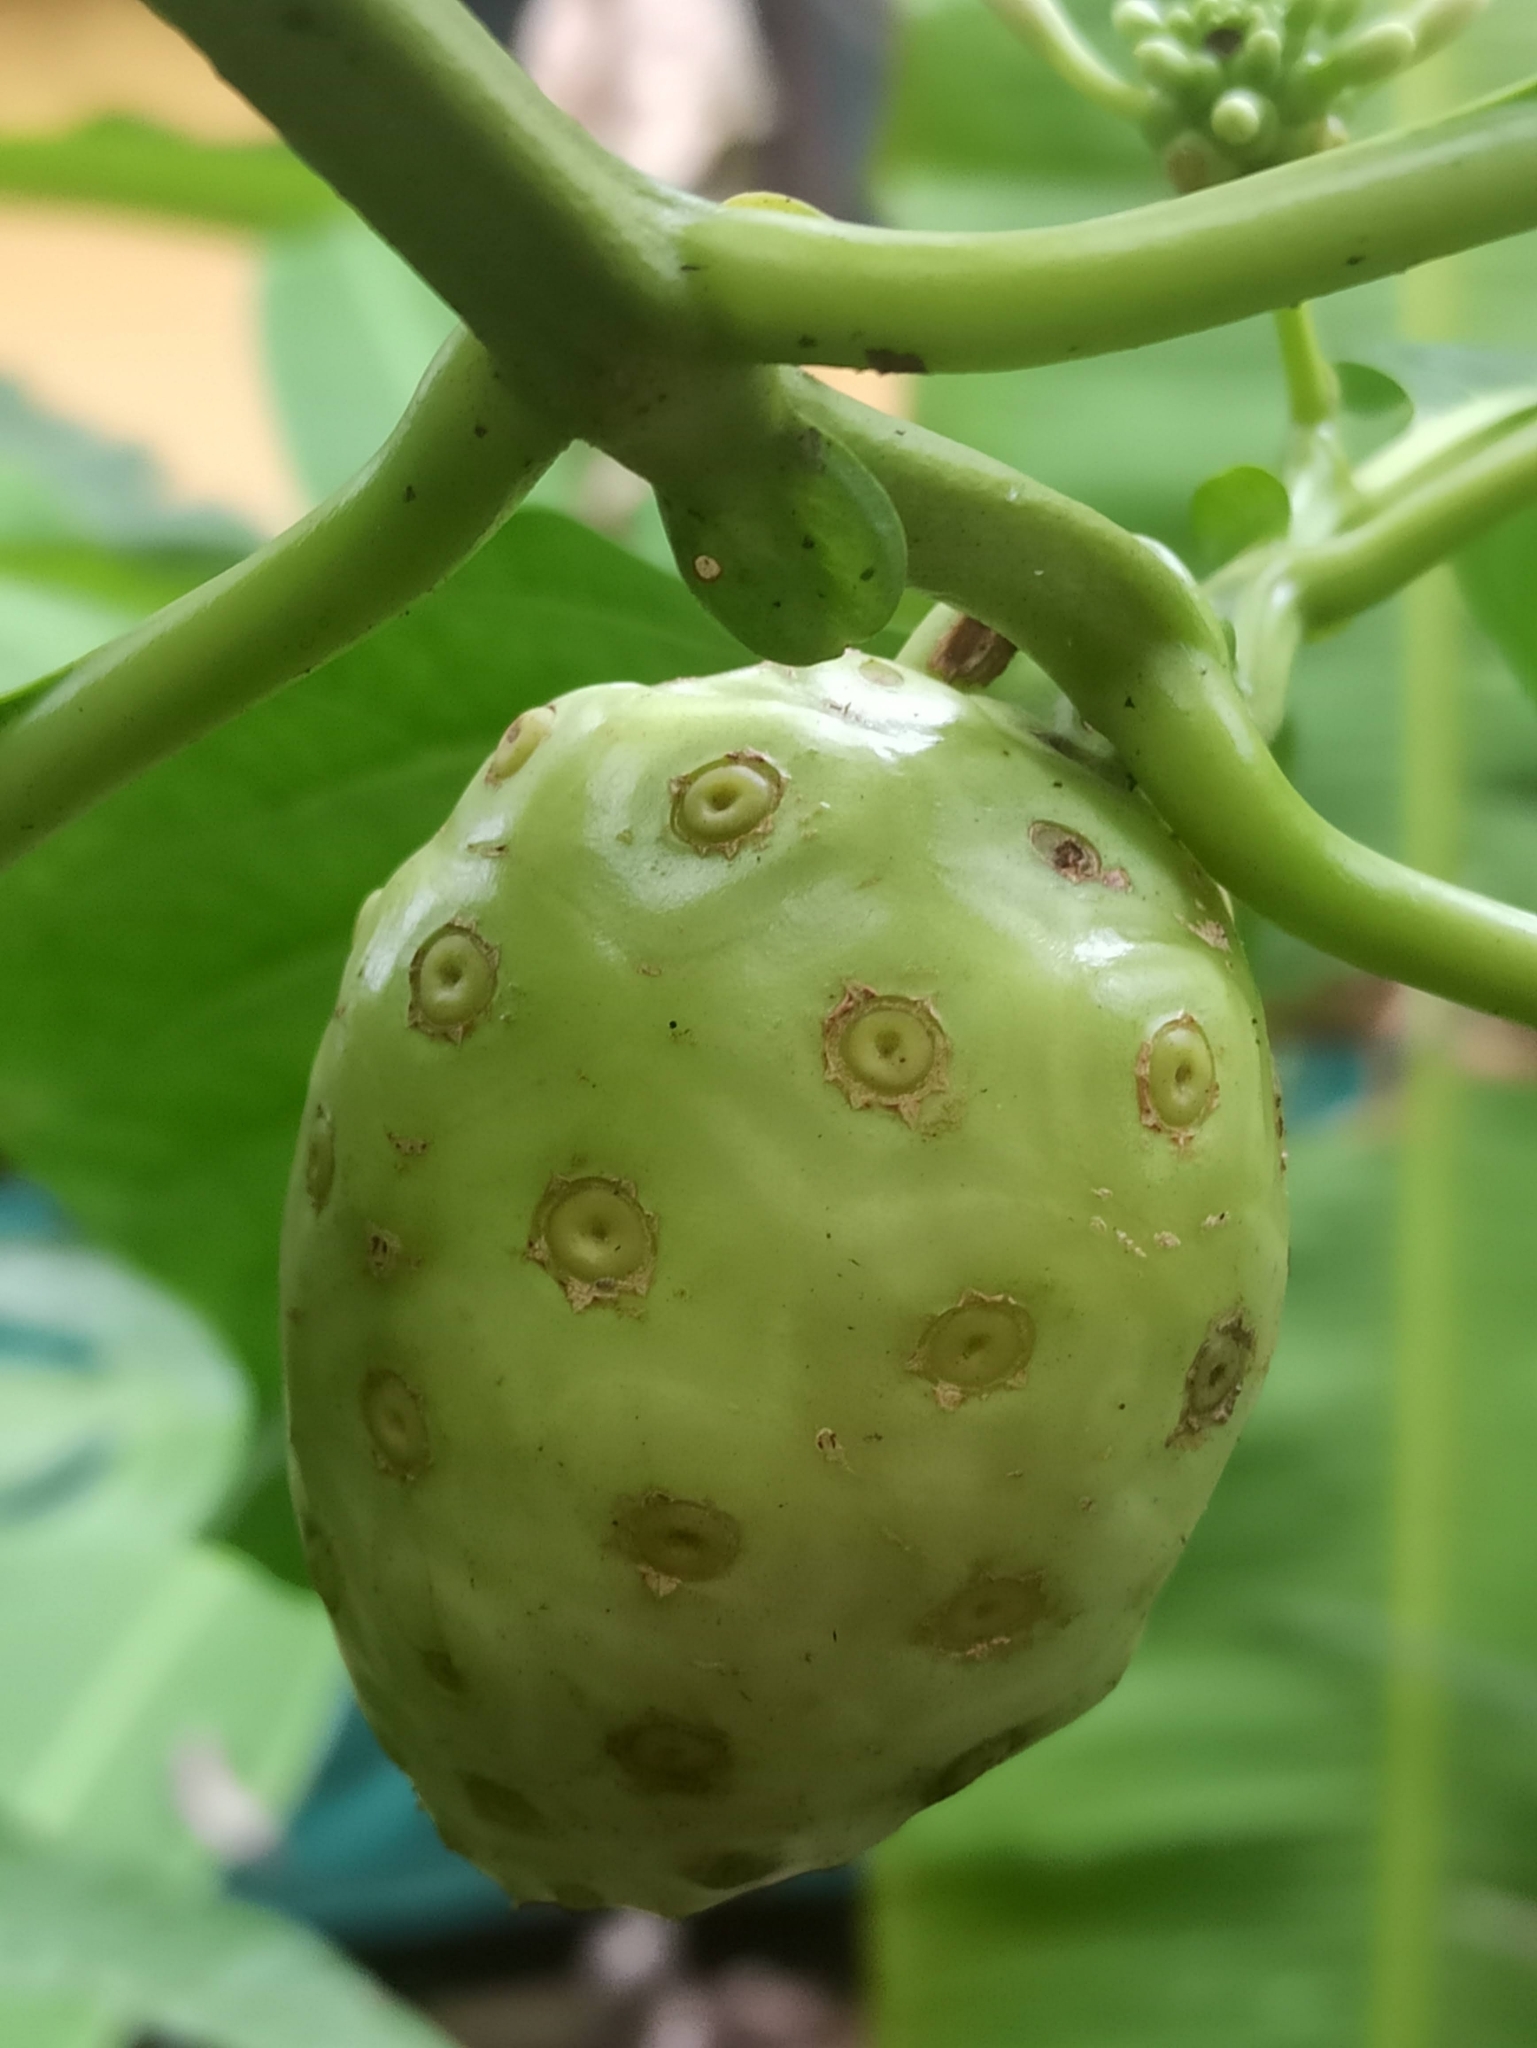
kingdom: Plantae
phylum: Tracheophyta
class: Magnoliopsida
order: Gentianales
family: Rubiaceae
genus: Morinda
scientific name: Morinda citrifolia
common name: Indian-mulberry
